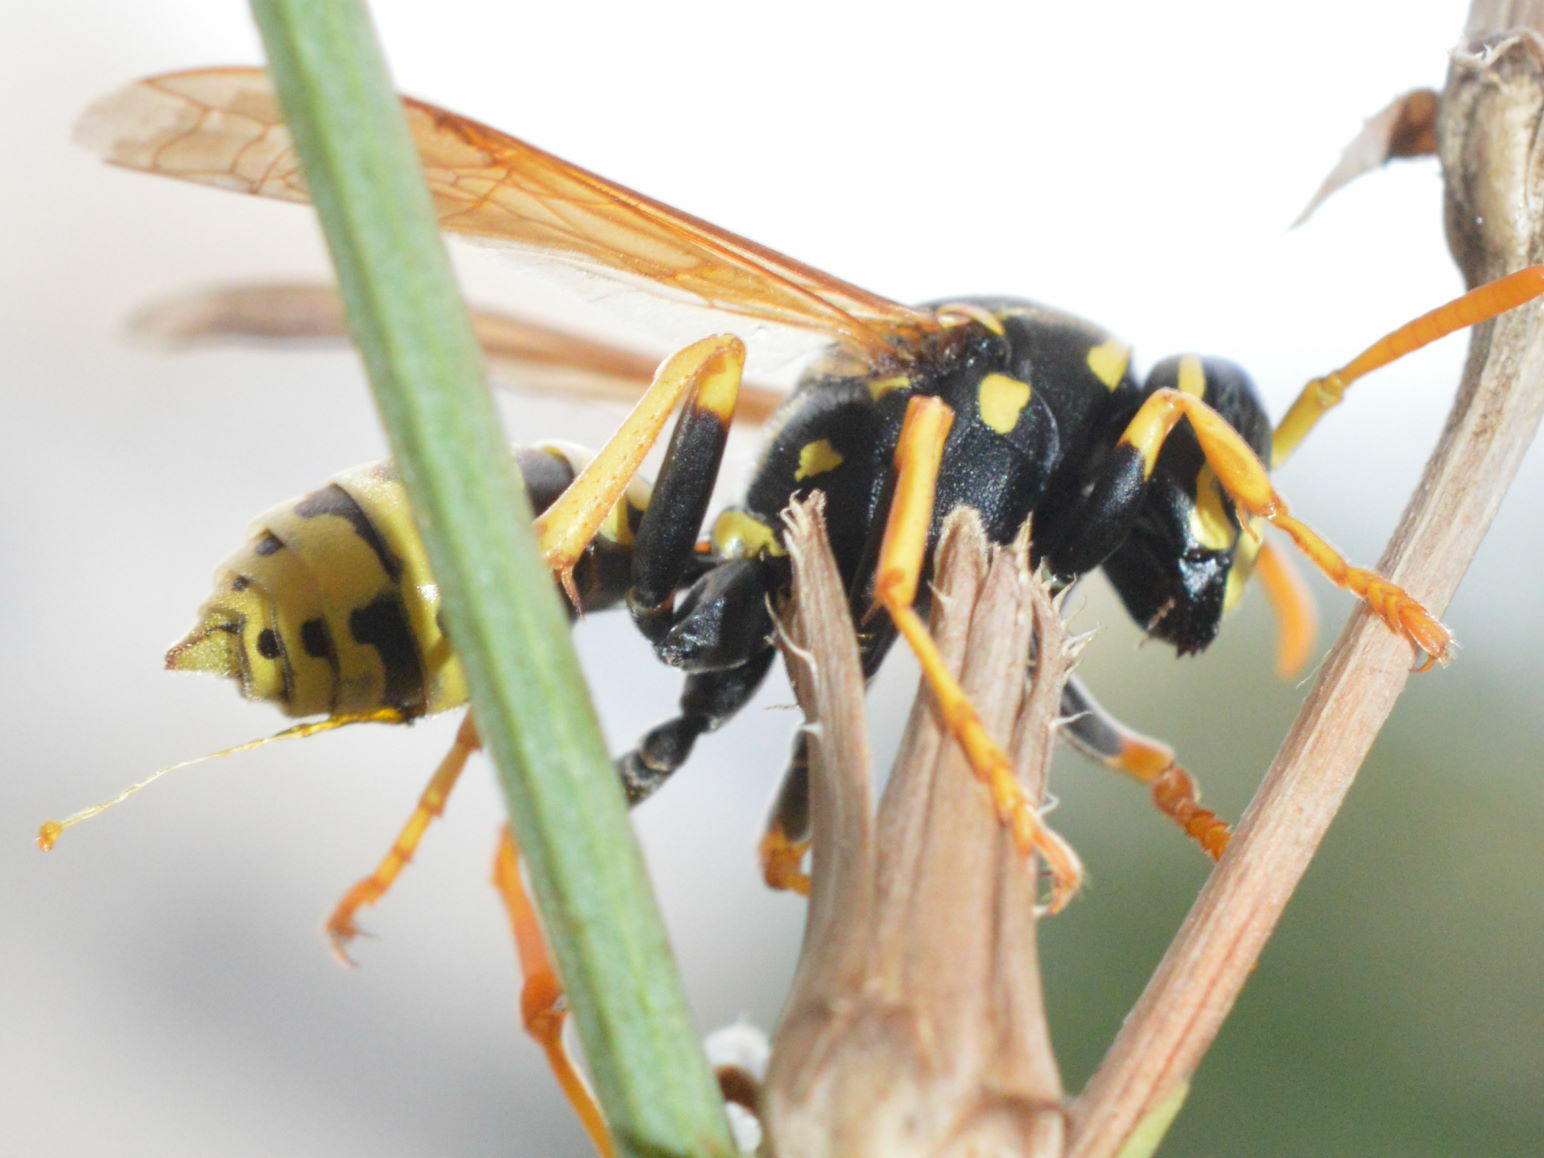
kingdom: Animalia
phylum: Arthropoda
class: Insecta
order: Hymenoptera
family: Eumenidae
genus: Polistes
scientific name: Polistes dominula
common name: Paper wasp
